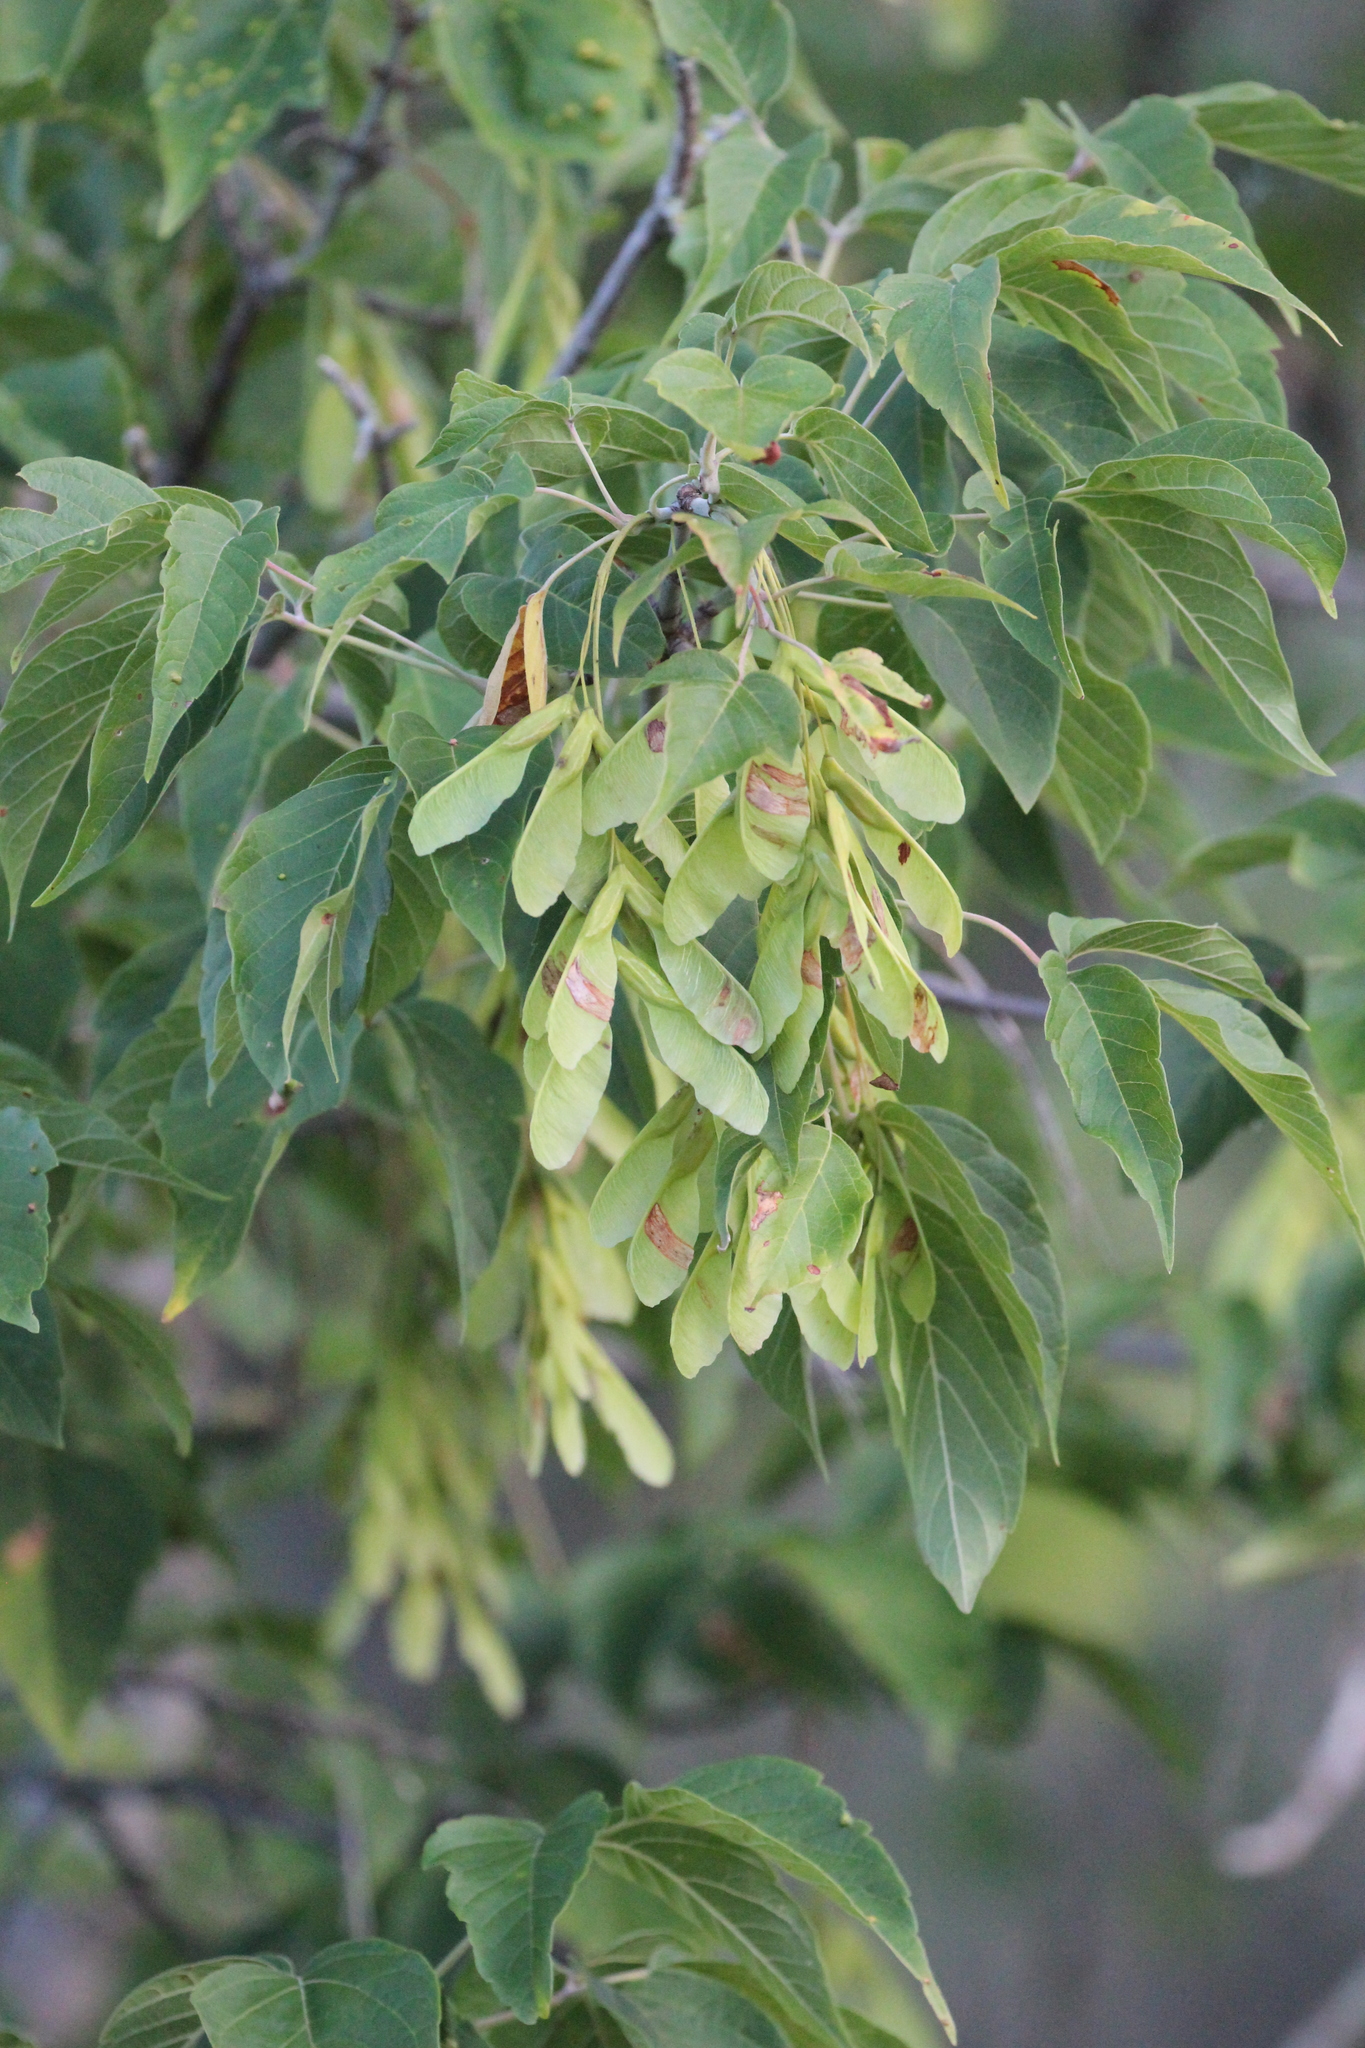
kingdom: Plantae
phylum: Tracheophyta
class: Magnoliopsida
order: Sapindales
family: Sapindaceae
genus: Acer
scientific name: Acer negundo
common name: Ashleaf maple
